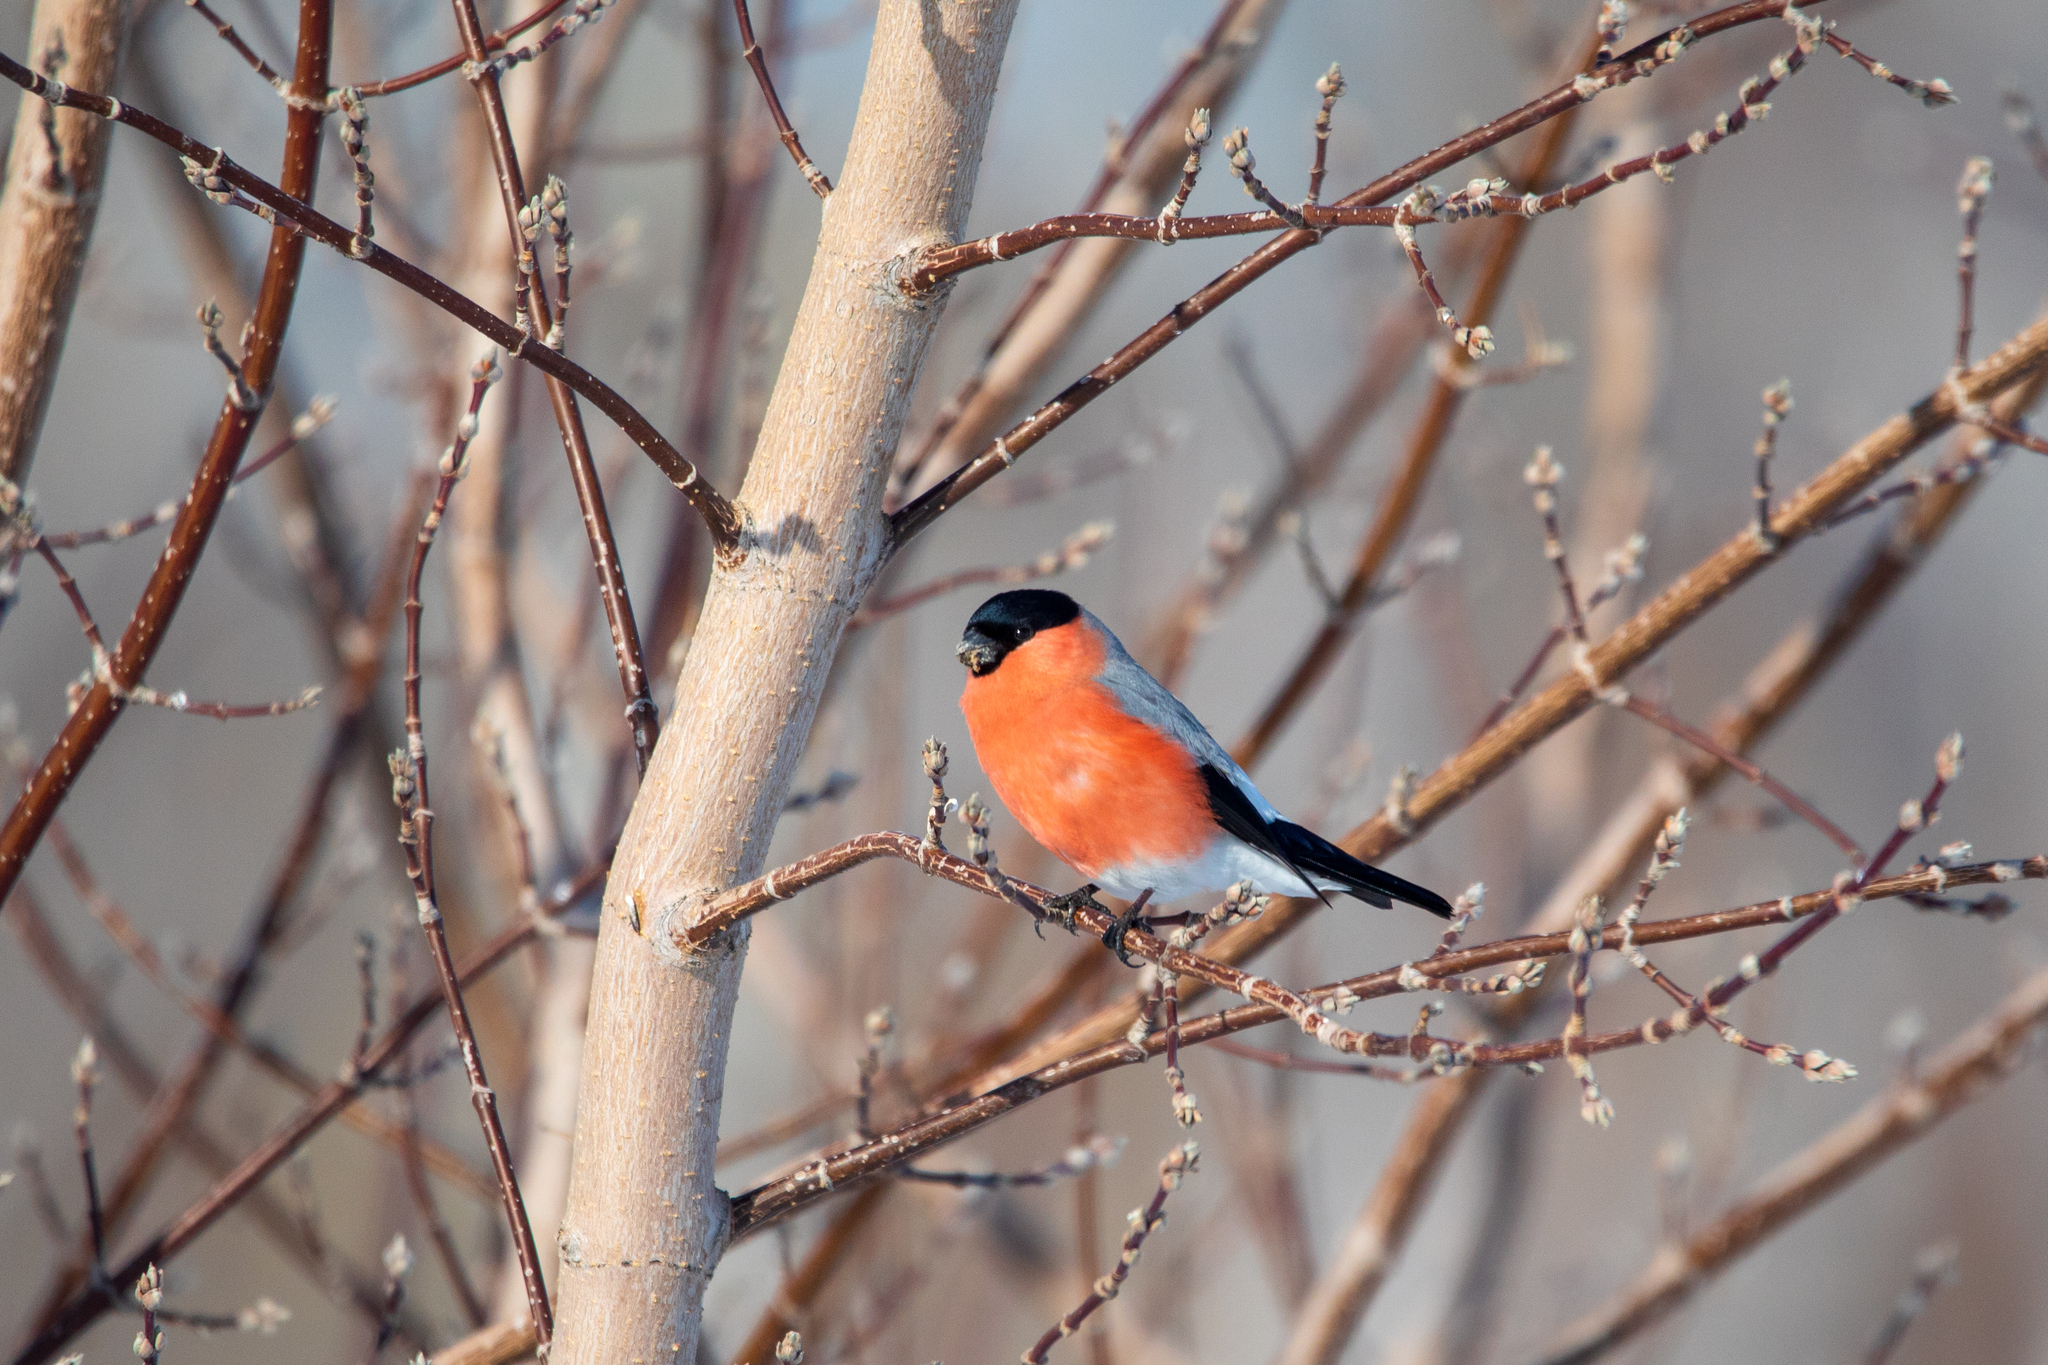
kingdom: Animalia
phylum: Chordata
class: Aves
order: Passeriformes
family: Fringillidae
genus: Pyrrhula
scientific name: Pyrrhula pyrrhula
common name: Eurasian bullfinch
